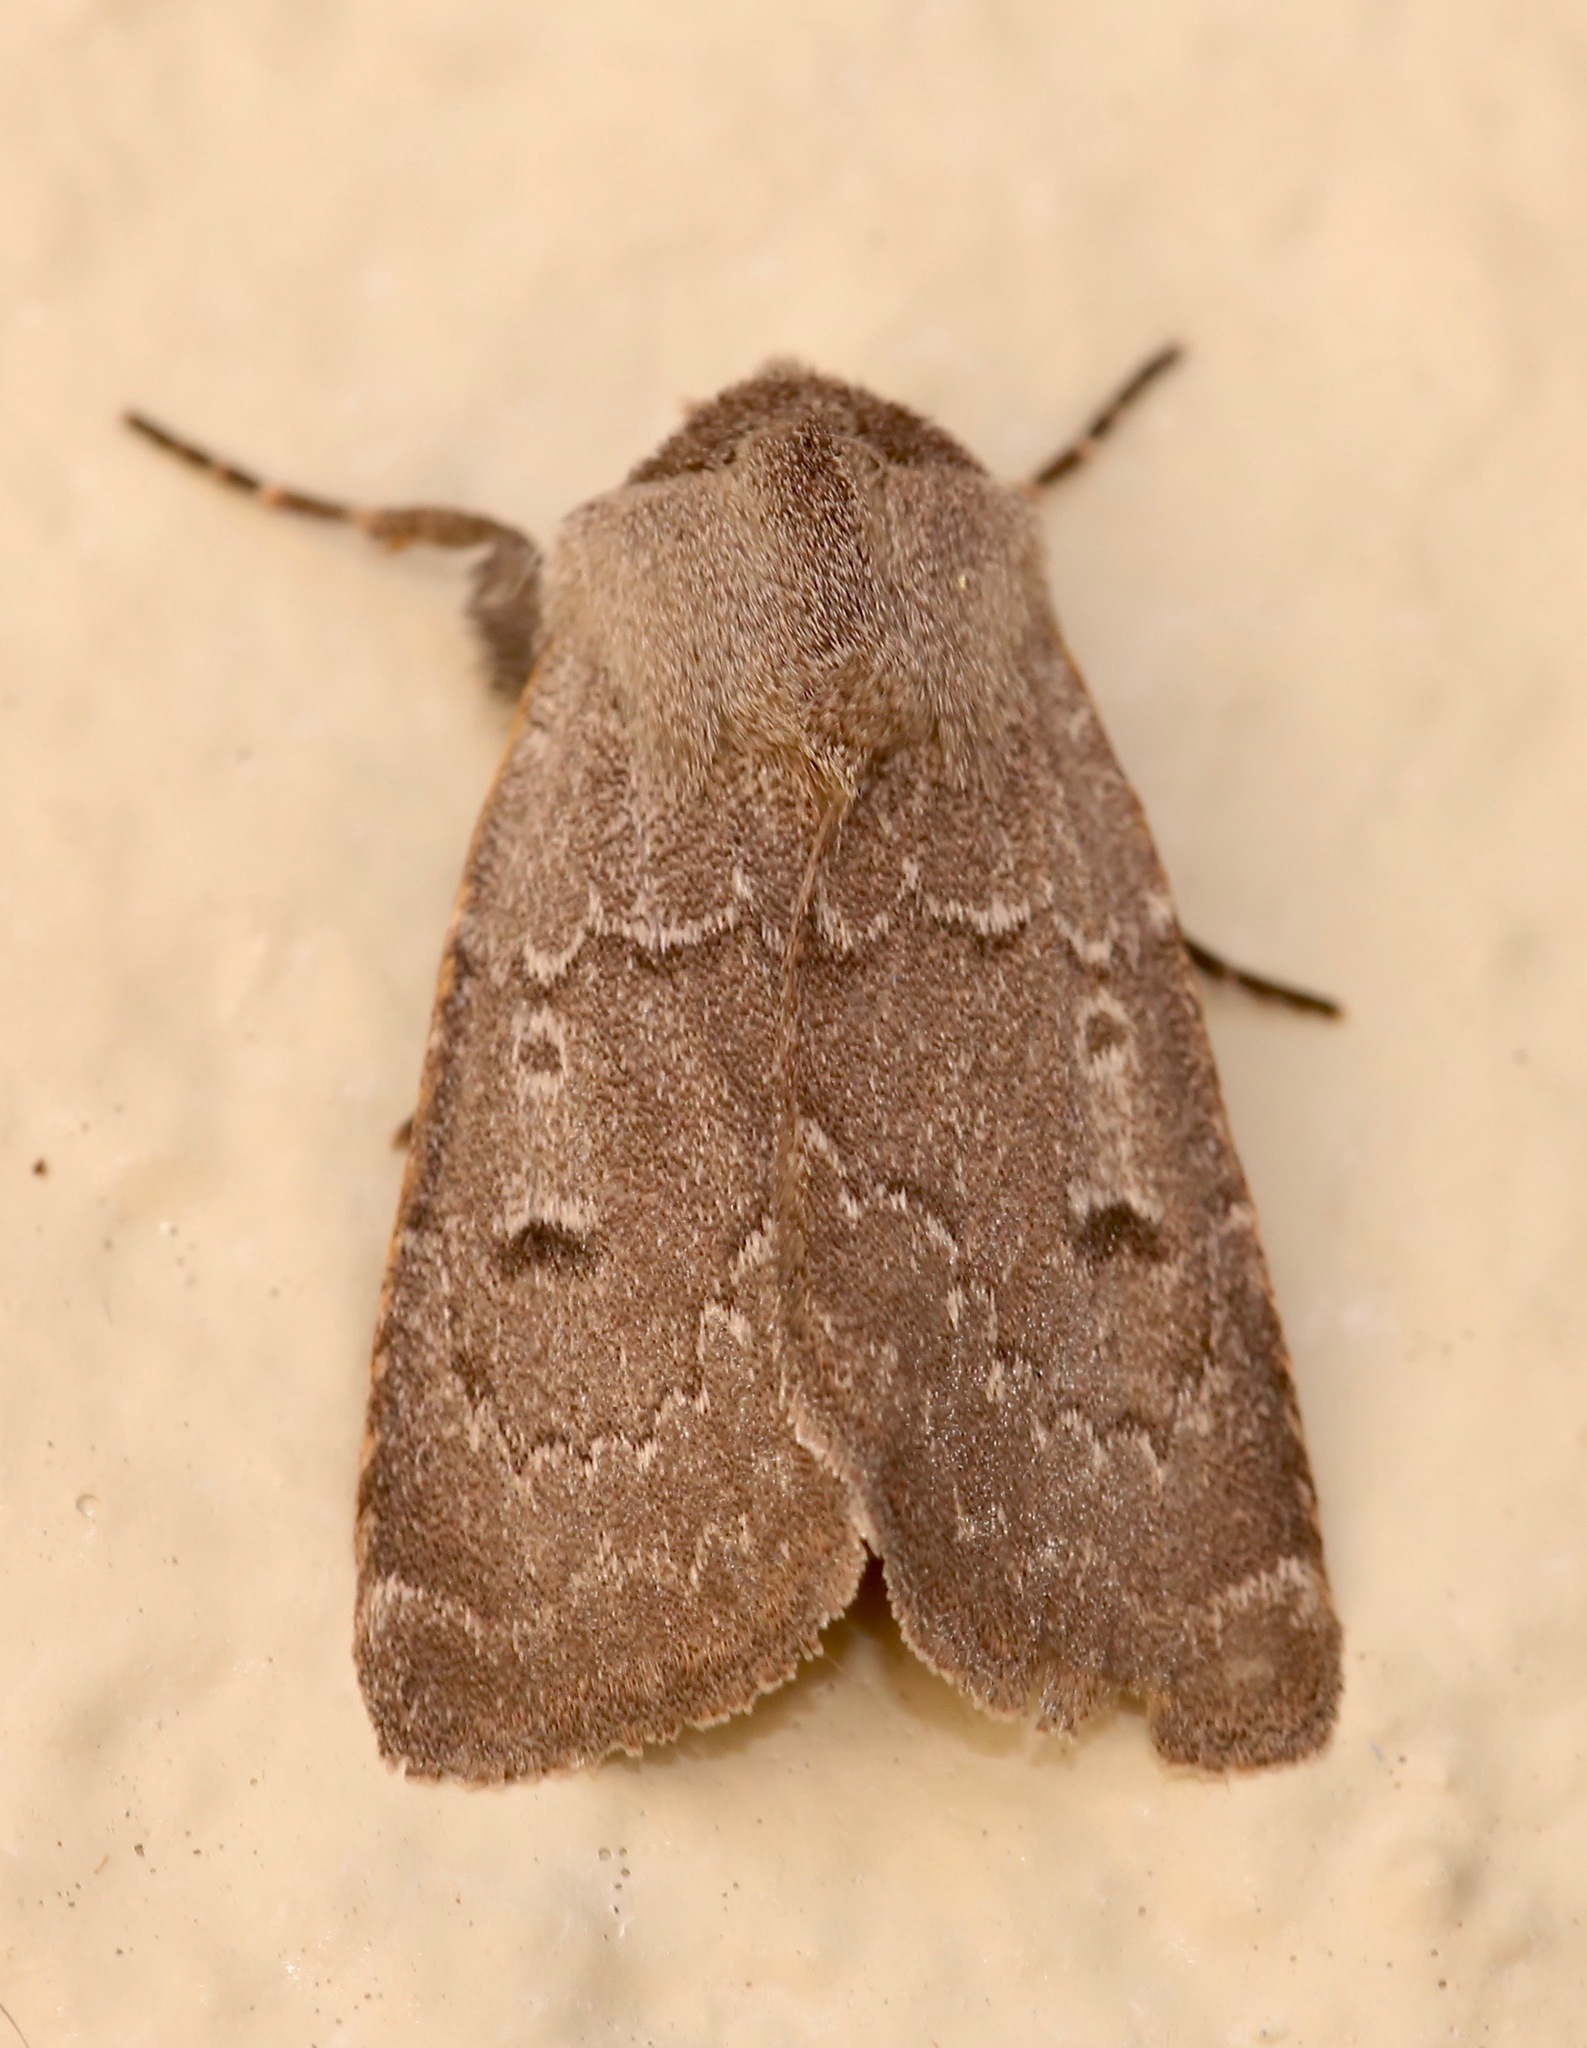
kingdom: Animalia
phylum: Arthropoda
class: Insecta
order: Lepidoptera
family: Noctuidae
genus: Feltia
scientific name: Feltia manifesta
